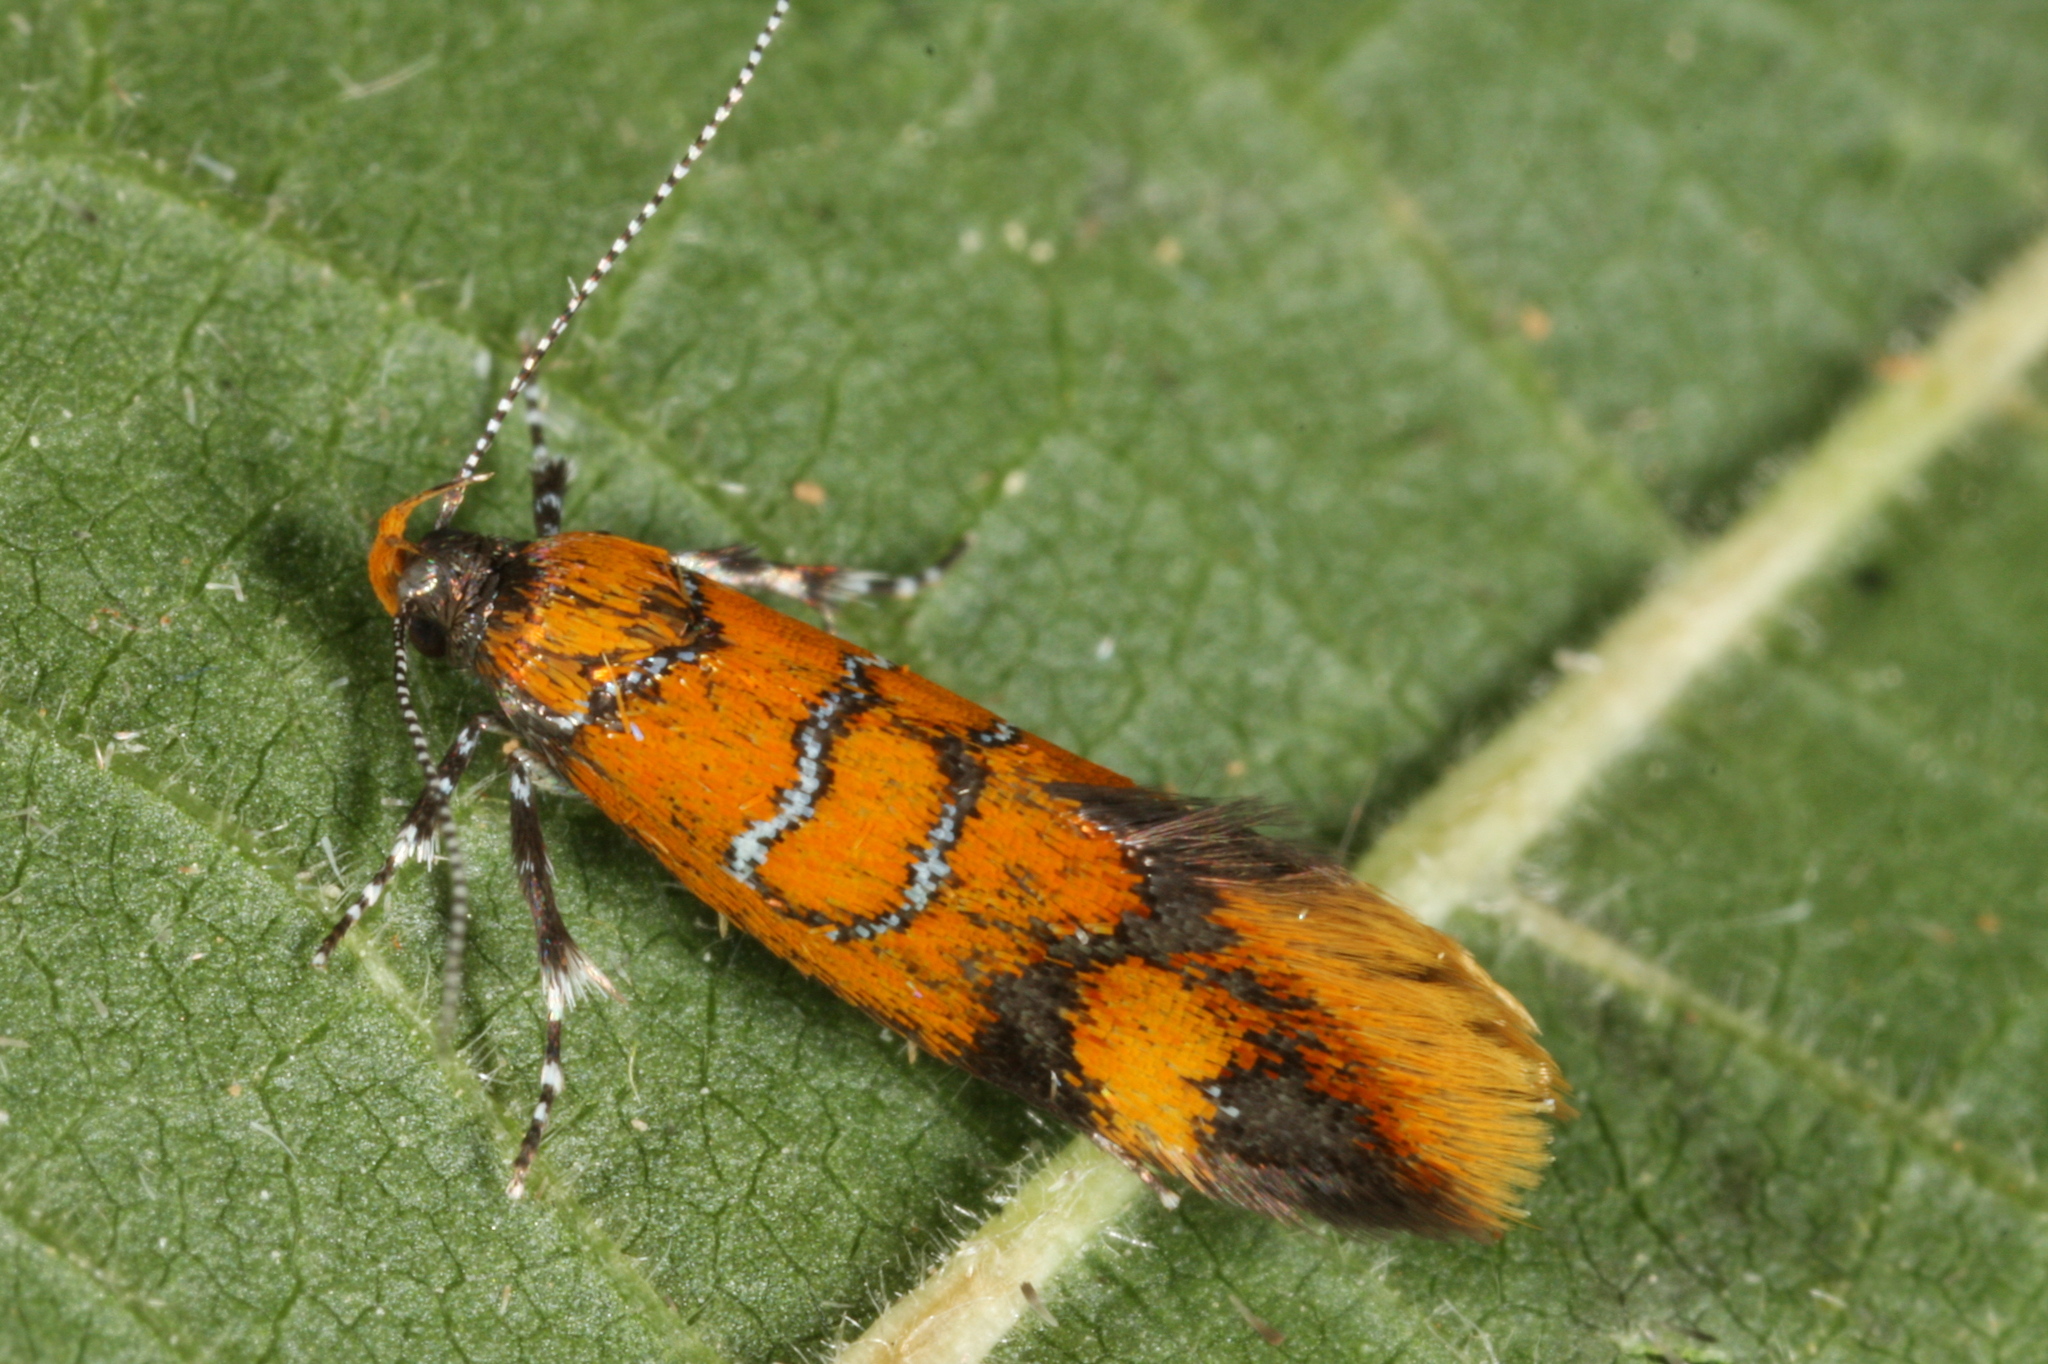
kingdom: Animalia
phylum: Arthropoda
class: Insecta
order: Lepidoptera
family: Oecophoridae
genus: Schiffermuelleria
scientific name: Schiffermuelleria procerella
